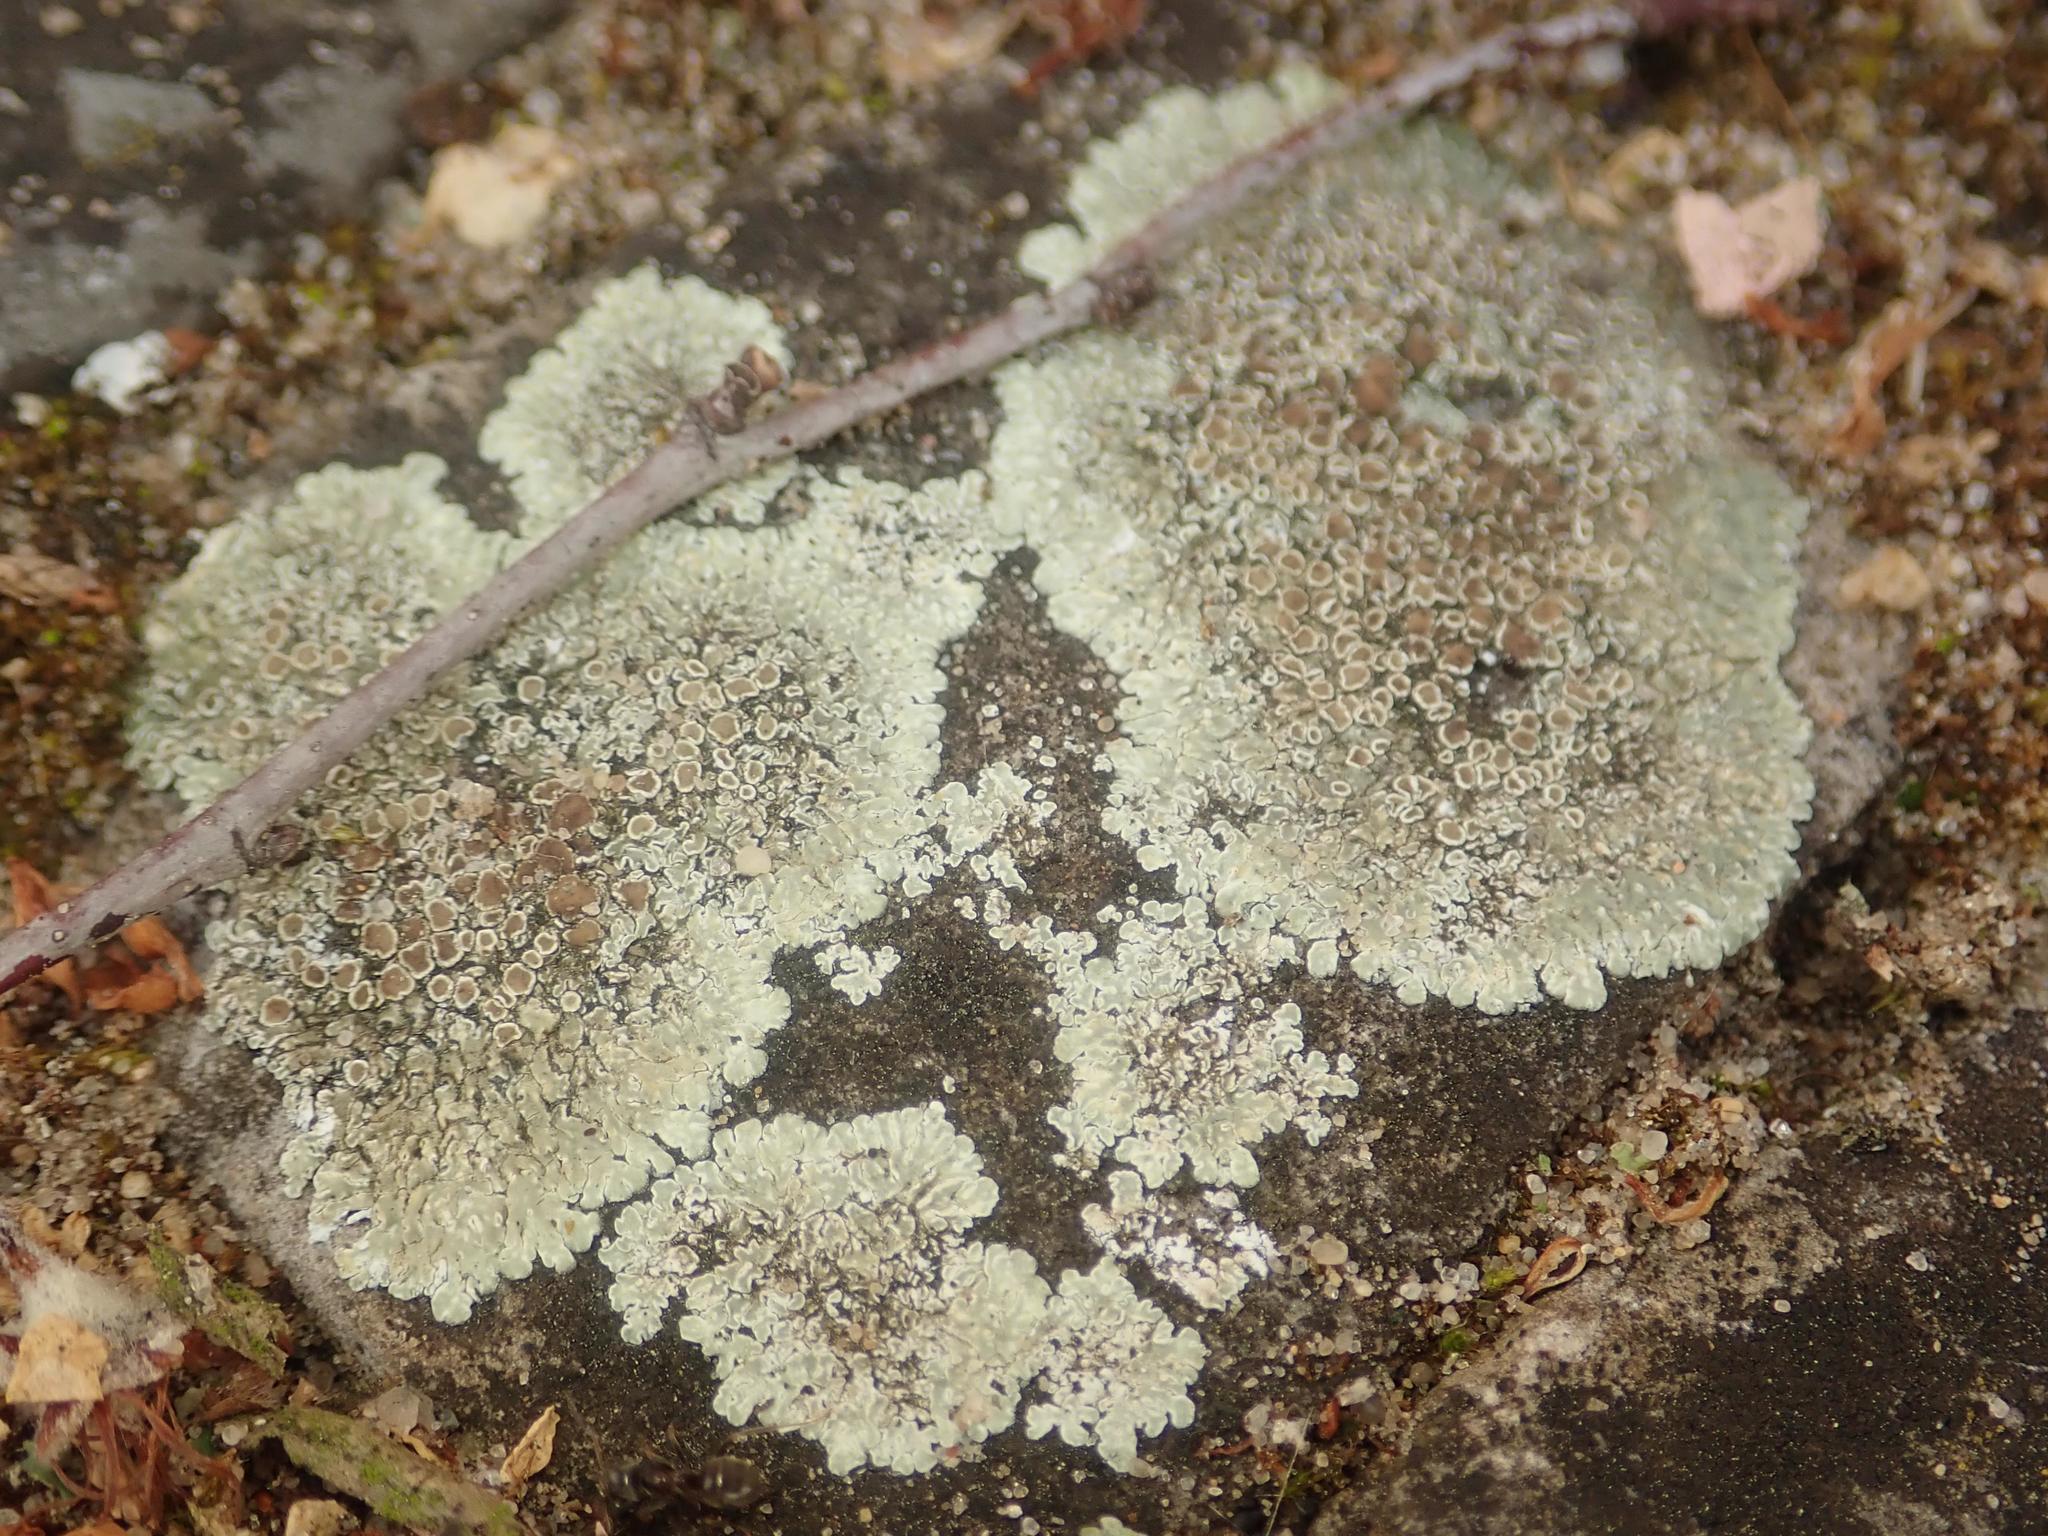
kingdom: Fungi
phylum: Ascomycota
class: Lecanoromycetes
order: Lecanorales
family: Lecanoraceae
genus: Protoparmeliopsis
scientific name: Protoparmeliopsis muralis
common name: Stonewall rim lichen
